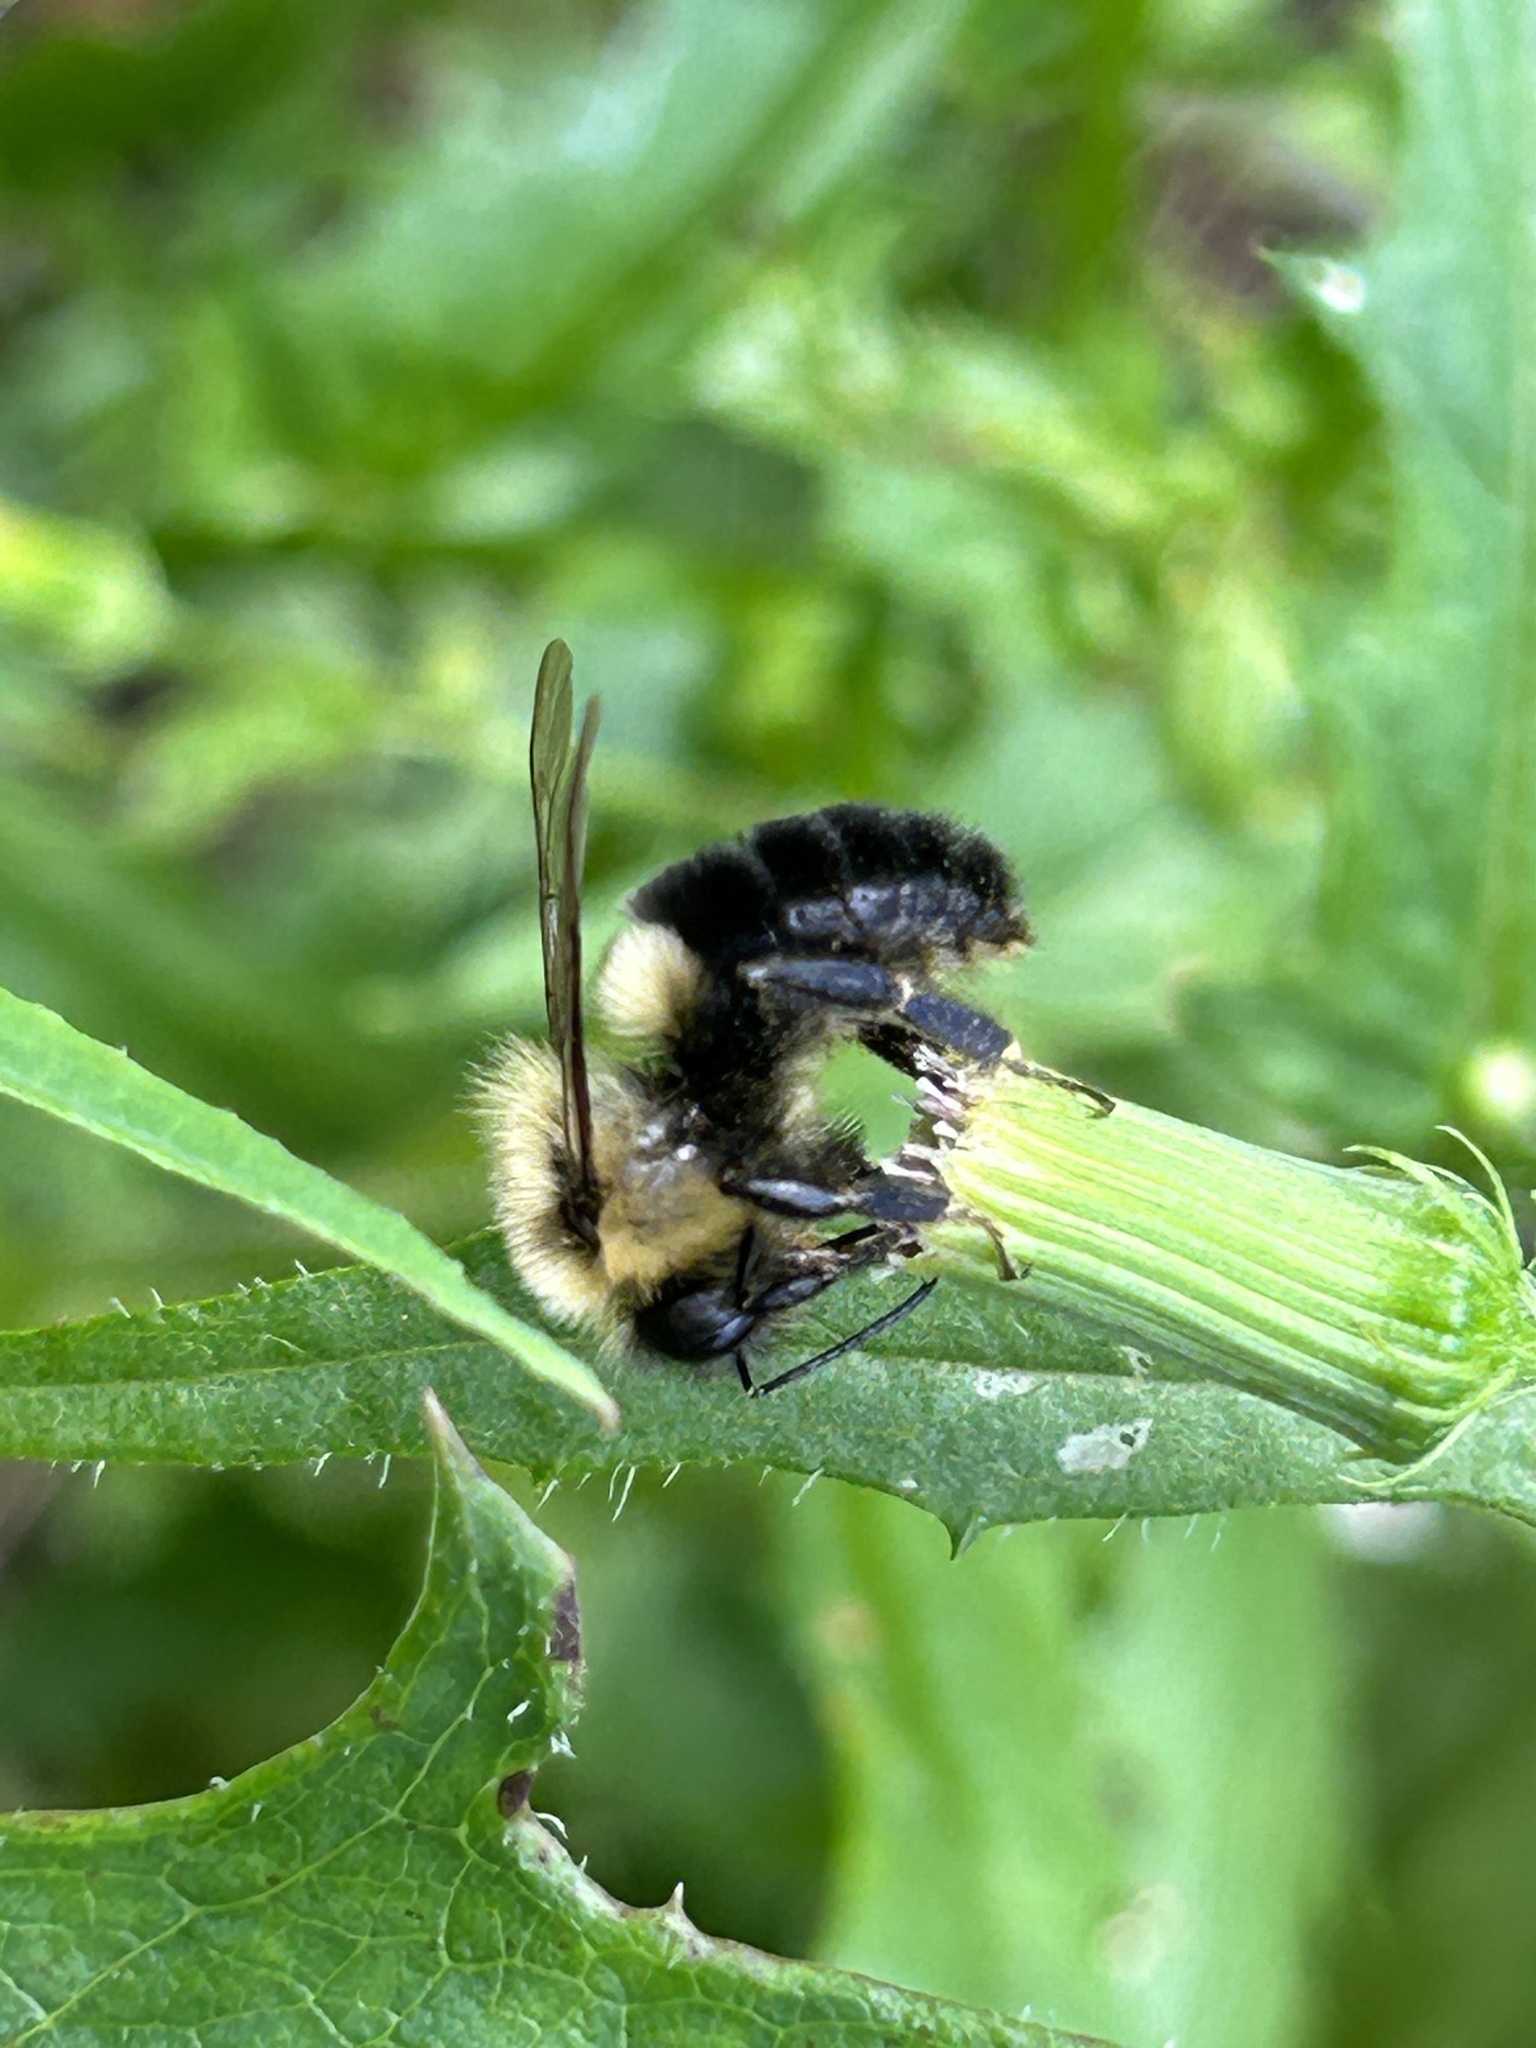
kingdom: Animalia
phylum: Arthropoda
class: Insecta
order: Hymenoptera
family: Apidae
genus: Bombus
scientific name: Bombus impatiens
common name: Common eastern bumble bee
